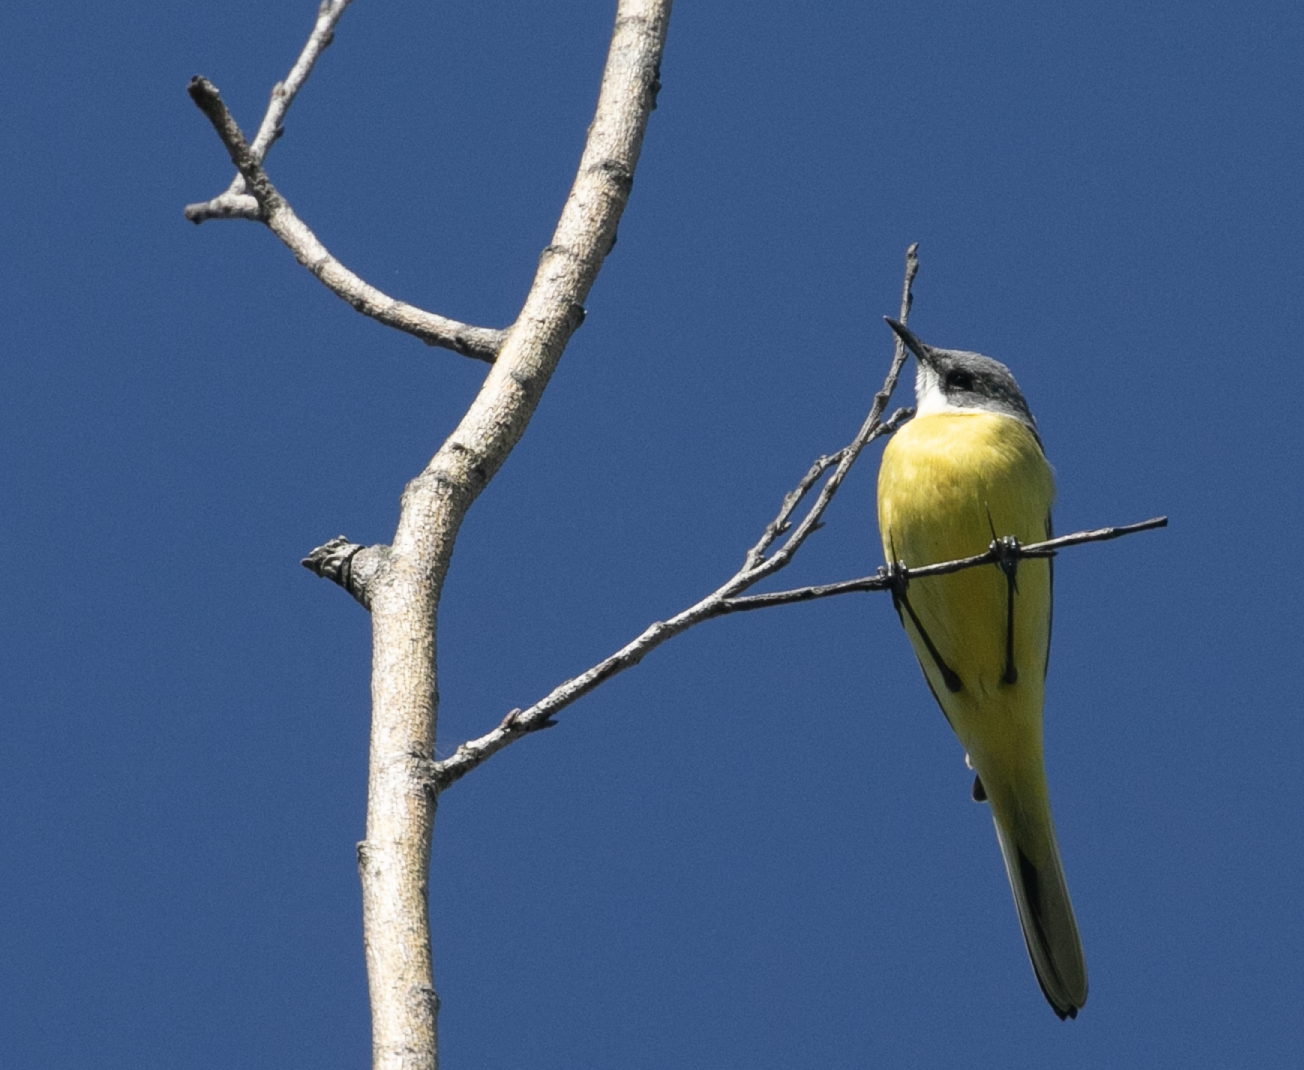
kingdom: Animalia
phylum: Chordata
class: Aves
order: Passeriformes
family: Motacillidae
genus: Motacilla
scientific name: Motacilla flava
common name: Western yellow wagtail
